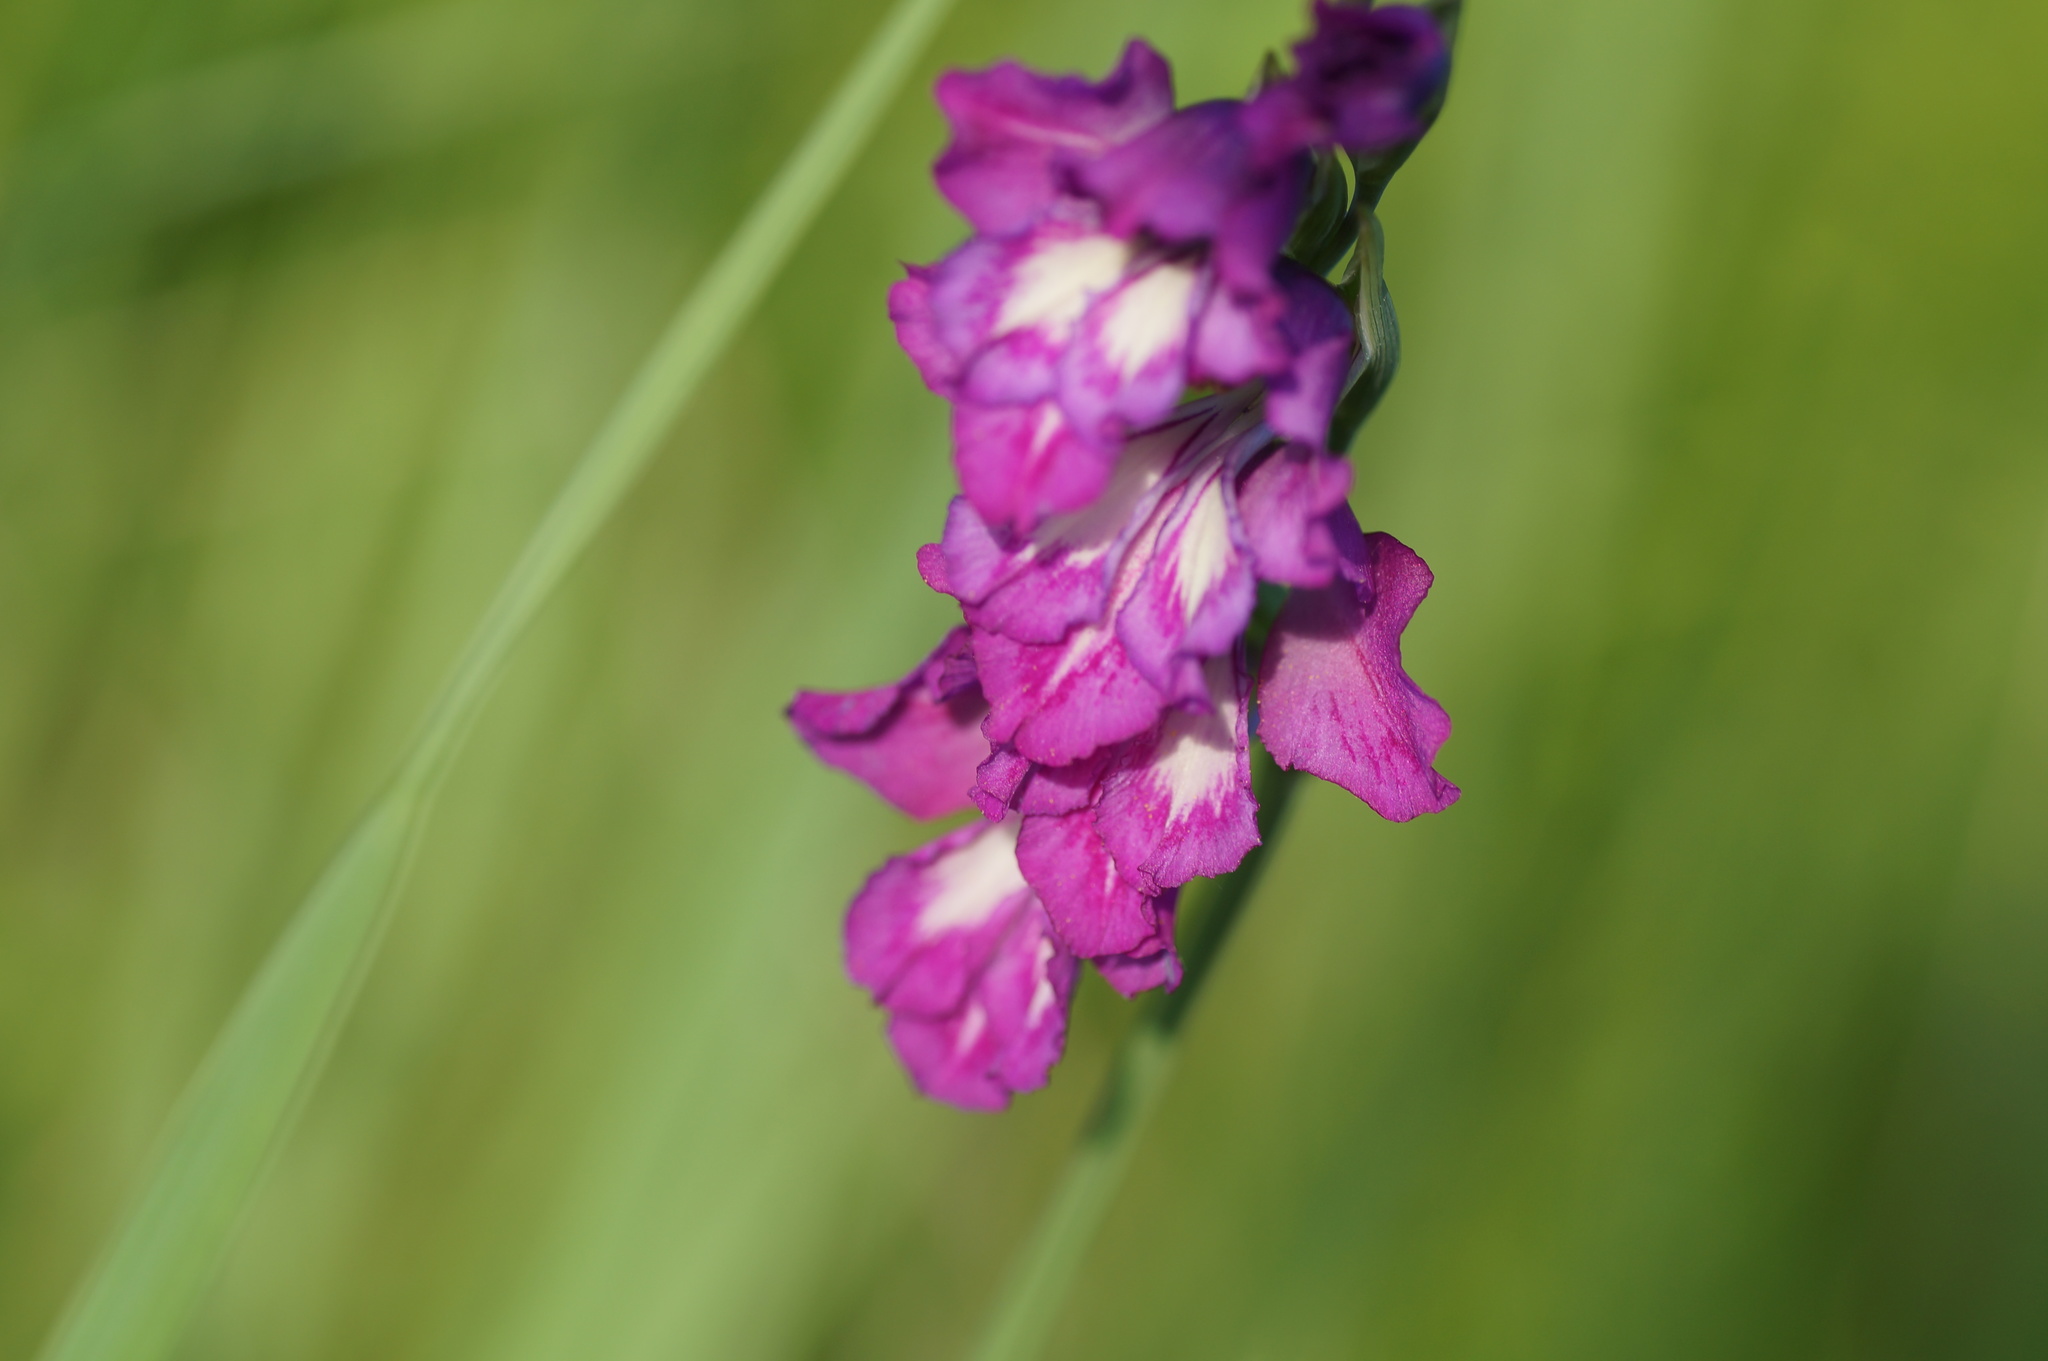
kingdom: Plantae
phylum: Tracheophyta
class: Liliopsida
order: Asparagales
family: Iridaceae
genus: Gladiolus
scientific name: Gladiolus tenuis
